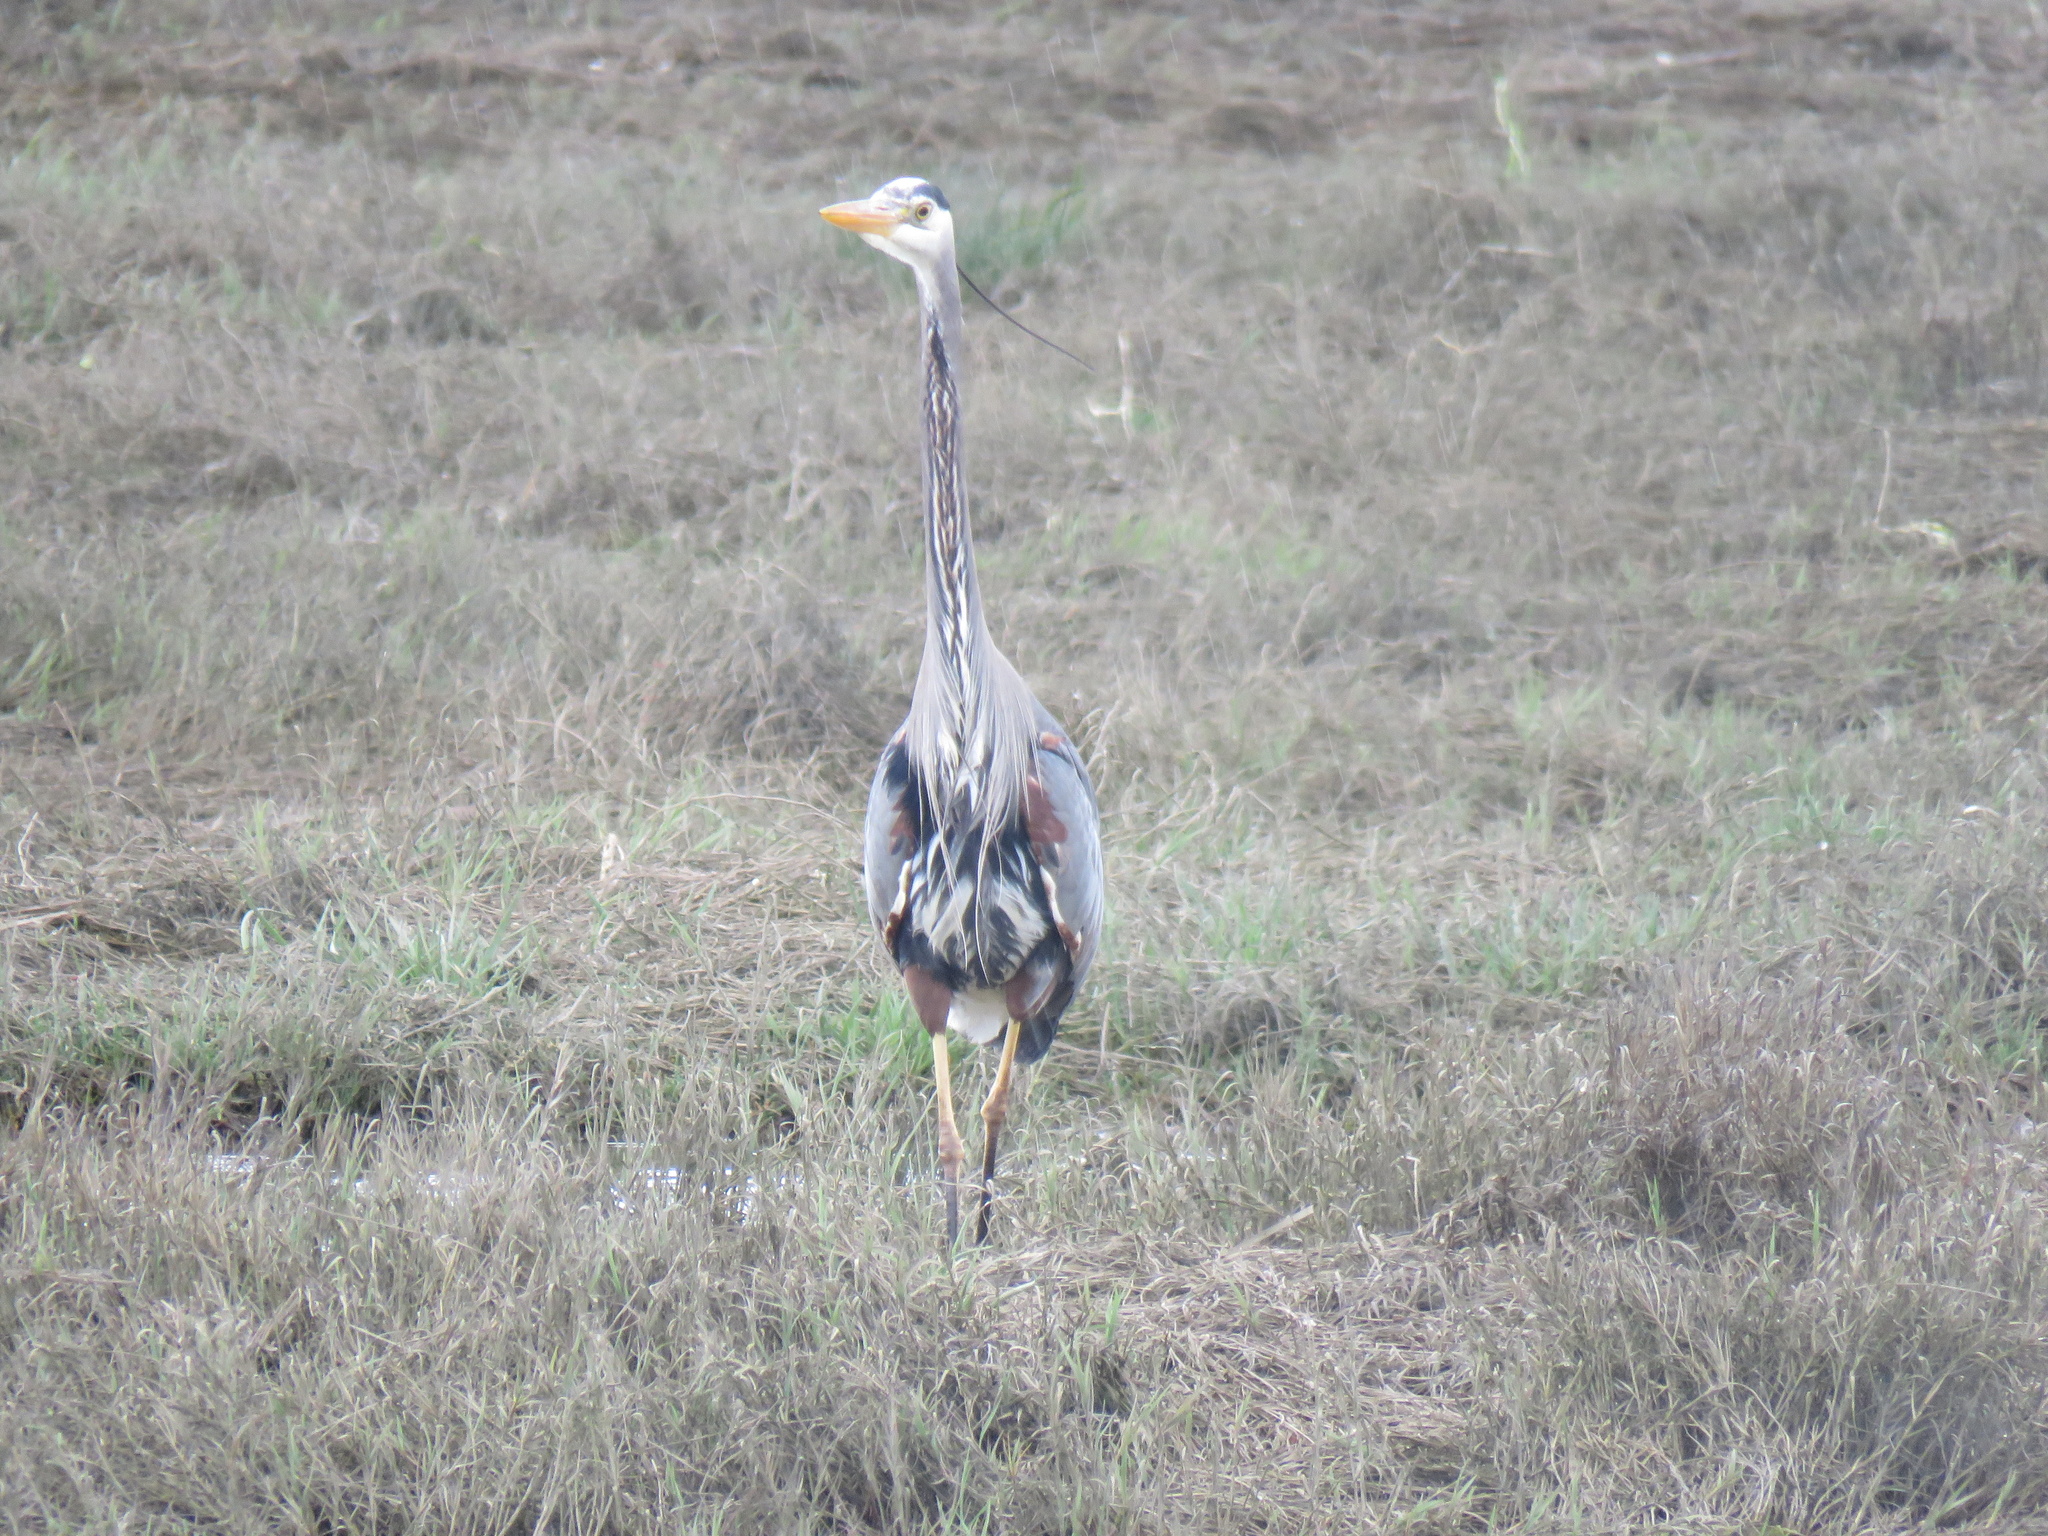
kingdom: Animalia
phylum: Chordata
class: Aves
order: Pelecaniformes
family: Ardeidae
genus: Ardea
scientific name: Ardea herodias
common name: Great blue heron
